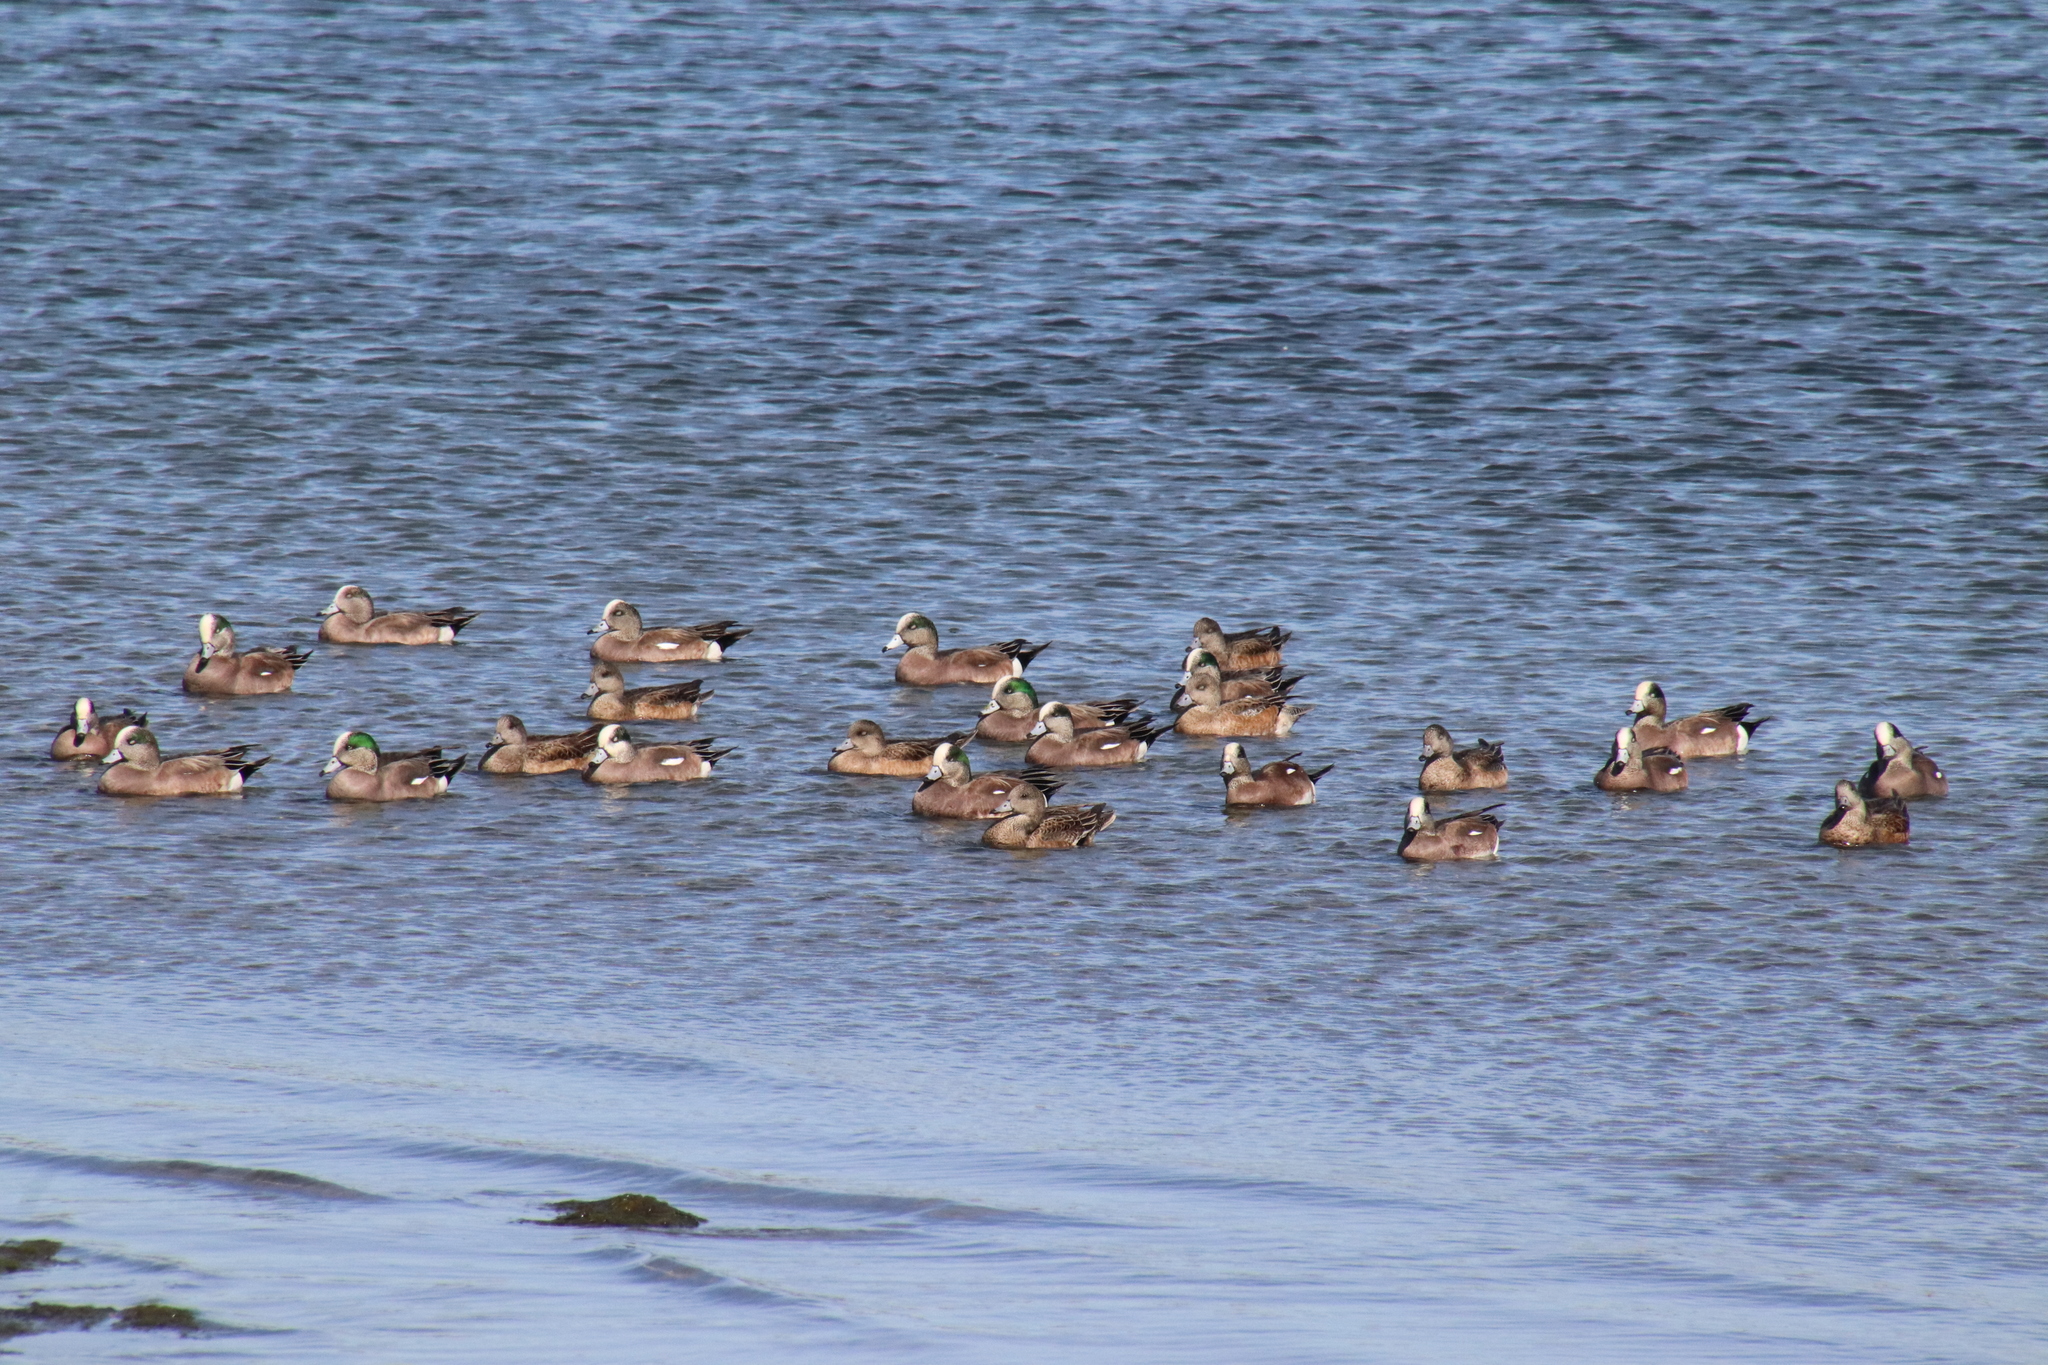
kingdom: Animalia
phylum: Chordata
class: Aves
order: Anseriformes
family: Anatidae
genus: Mareca
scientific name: Mareca americana
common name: American wigeon
